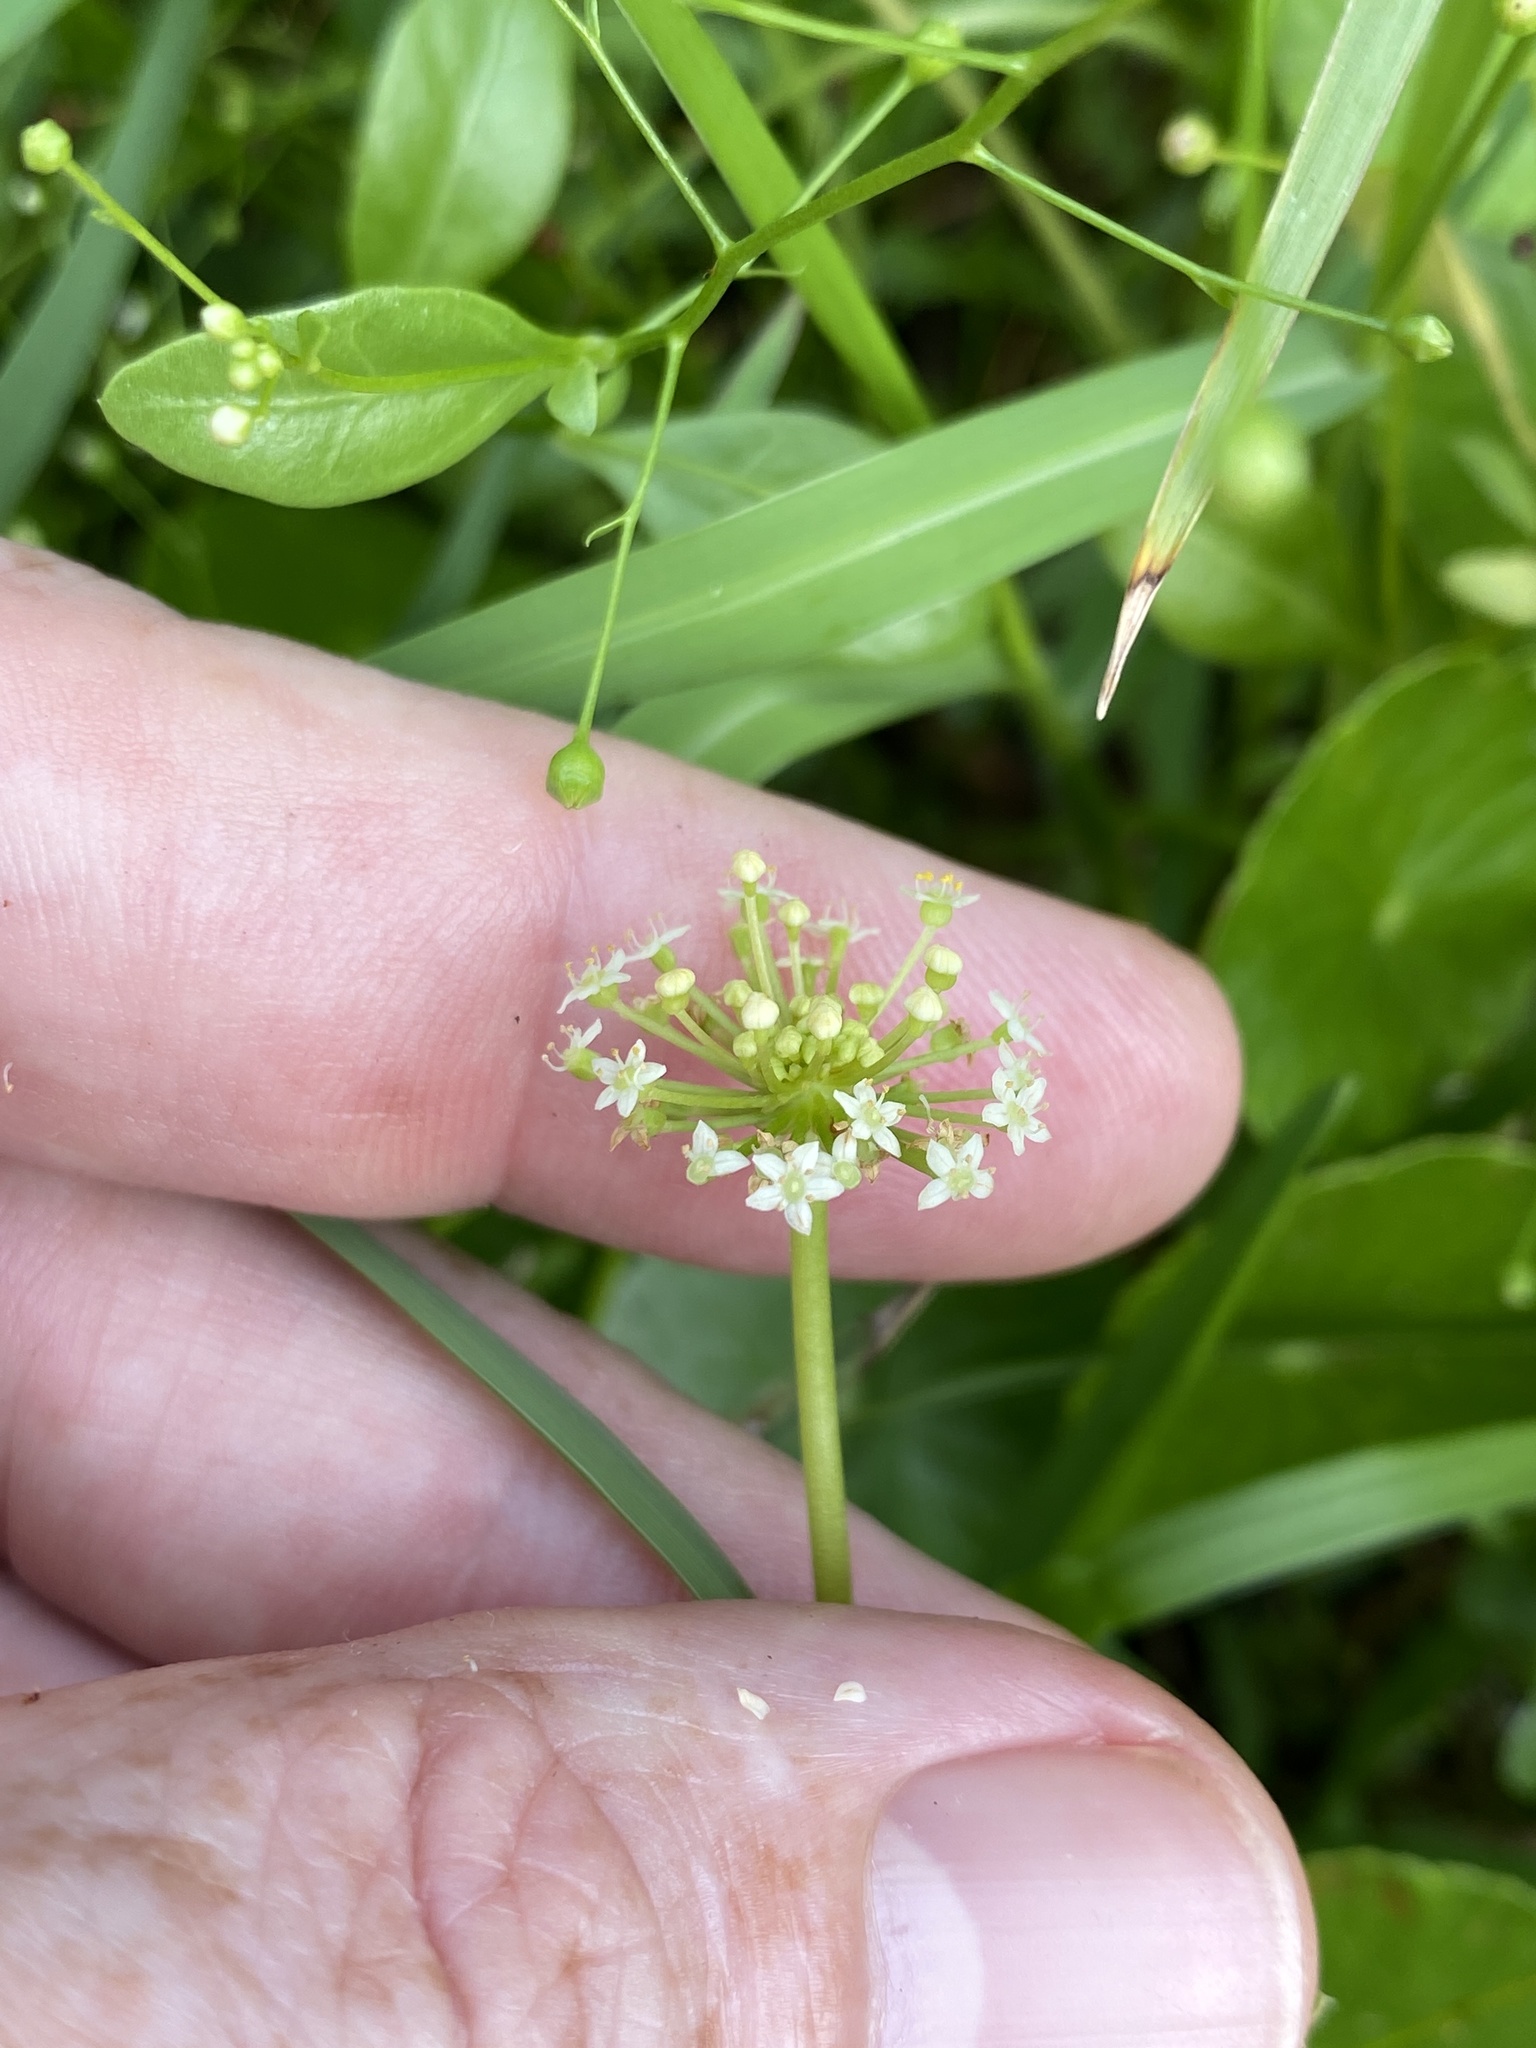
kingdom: Plantae
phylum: Tracheophyta
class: Magnoliopsida
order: Apiales
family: Araliaceae
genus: Hydrocotyle
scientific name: Hydrocotyle umbellata
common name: Water pennywort
